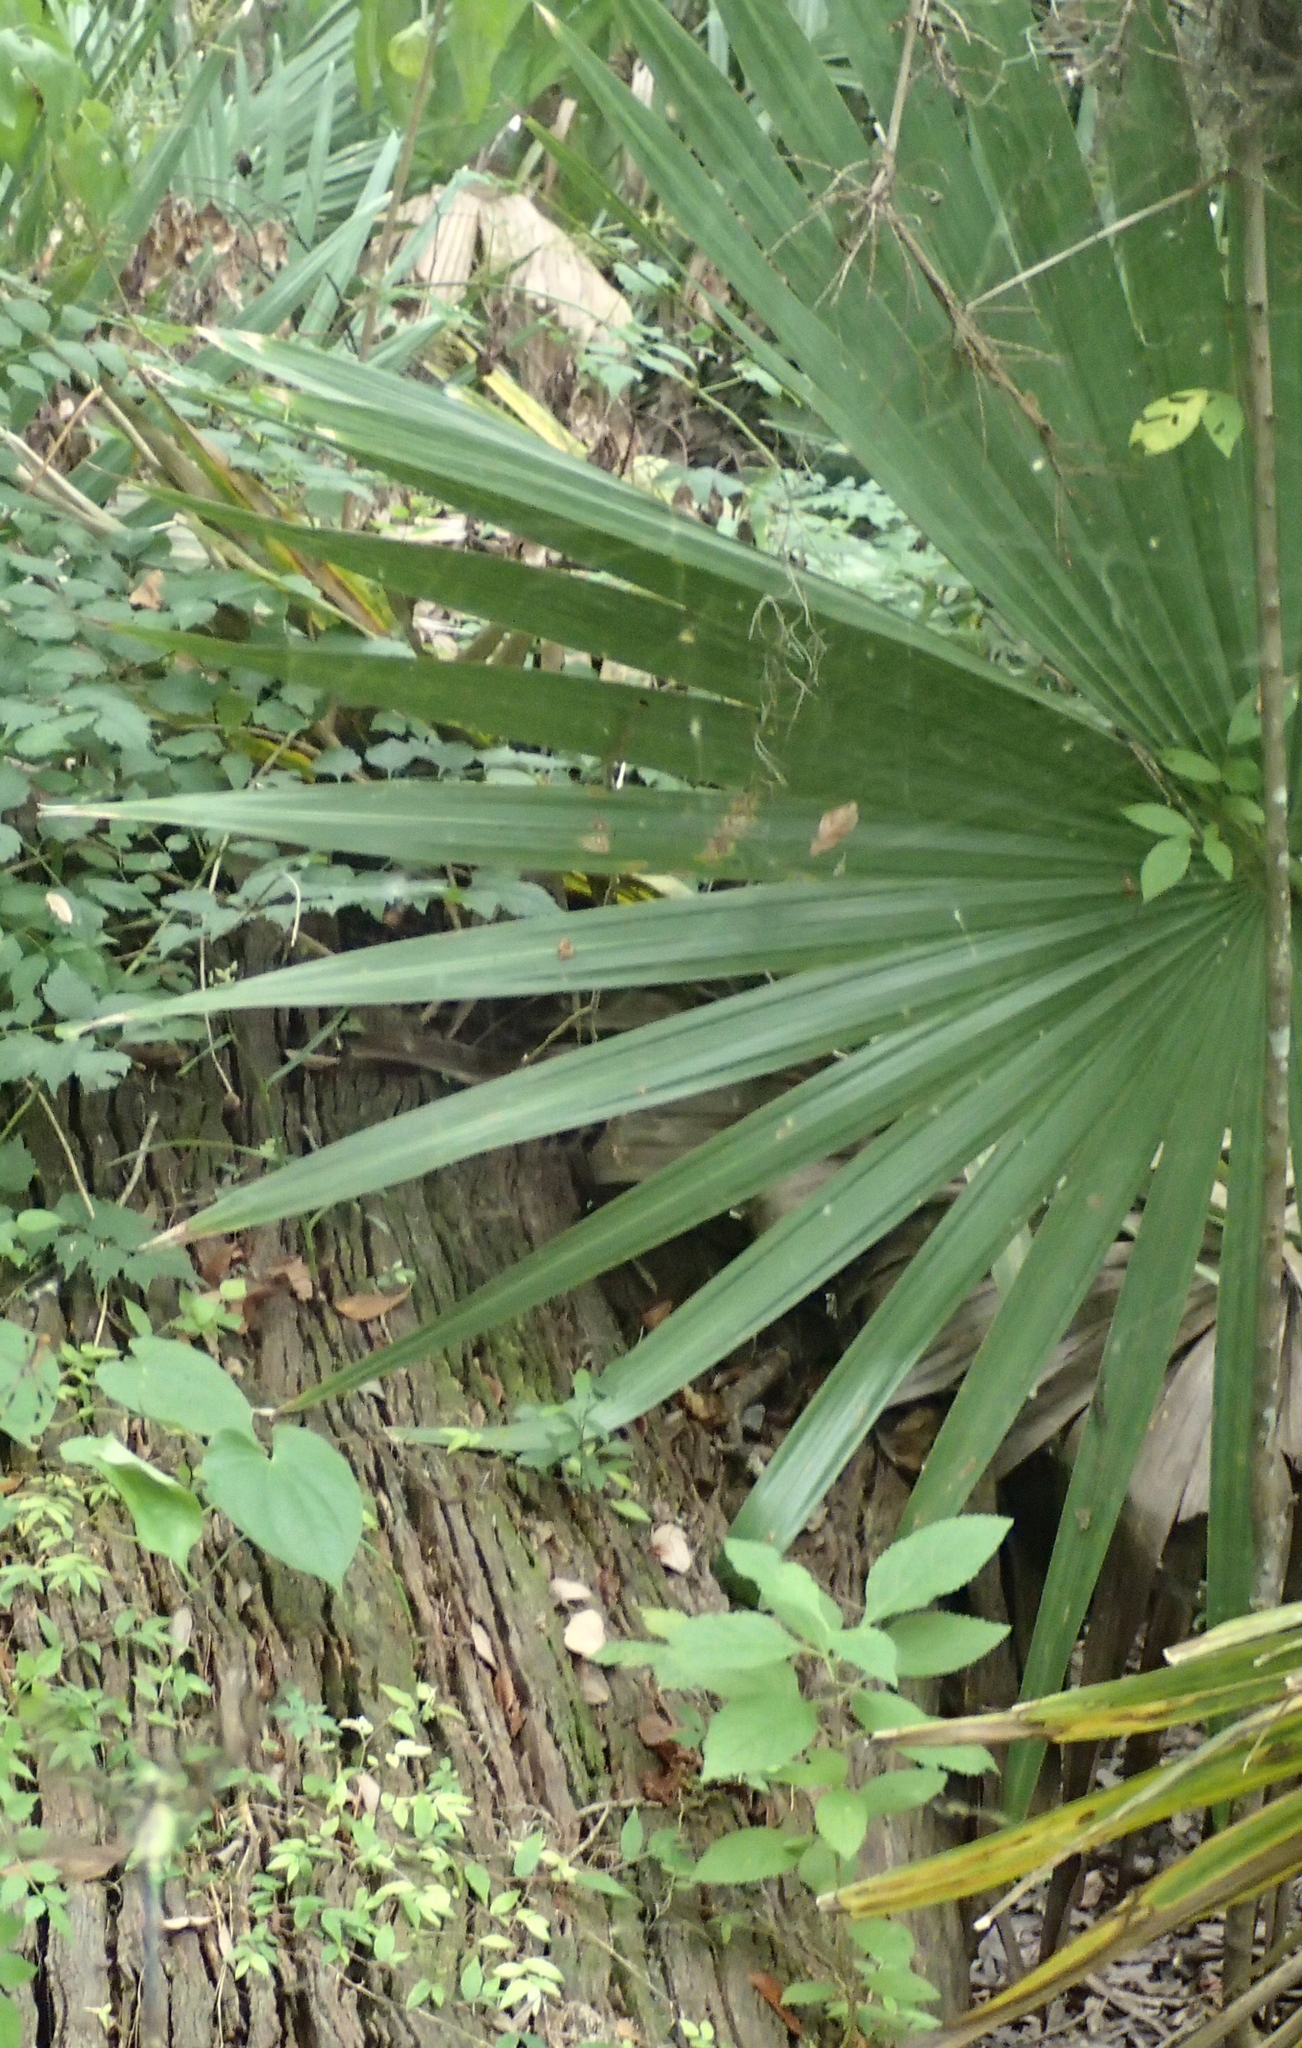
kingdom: Plantae
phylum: Tracheophyta
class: Liliopsida
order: Arecales
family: Arecaceae
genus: Sabal
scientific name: Sabal minor
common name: Dwarf palmetto
